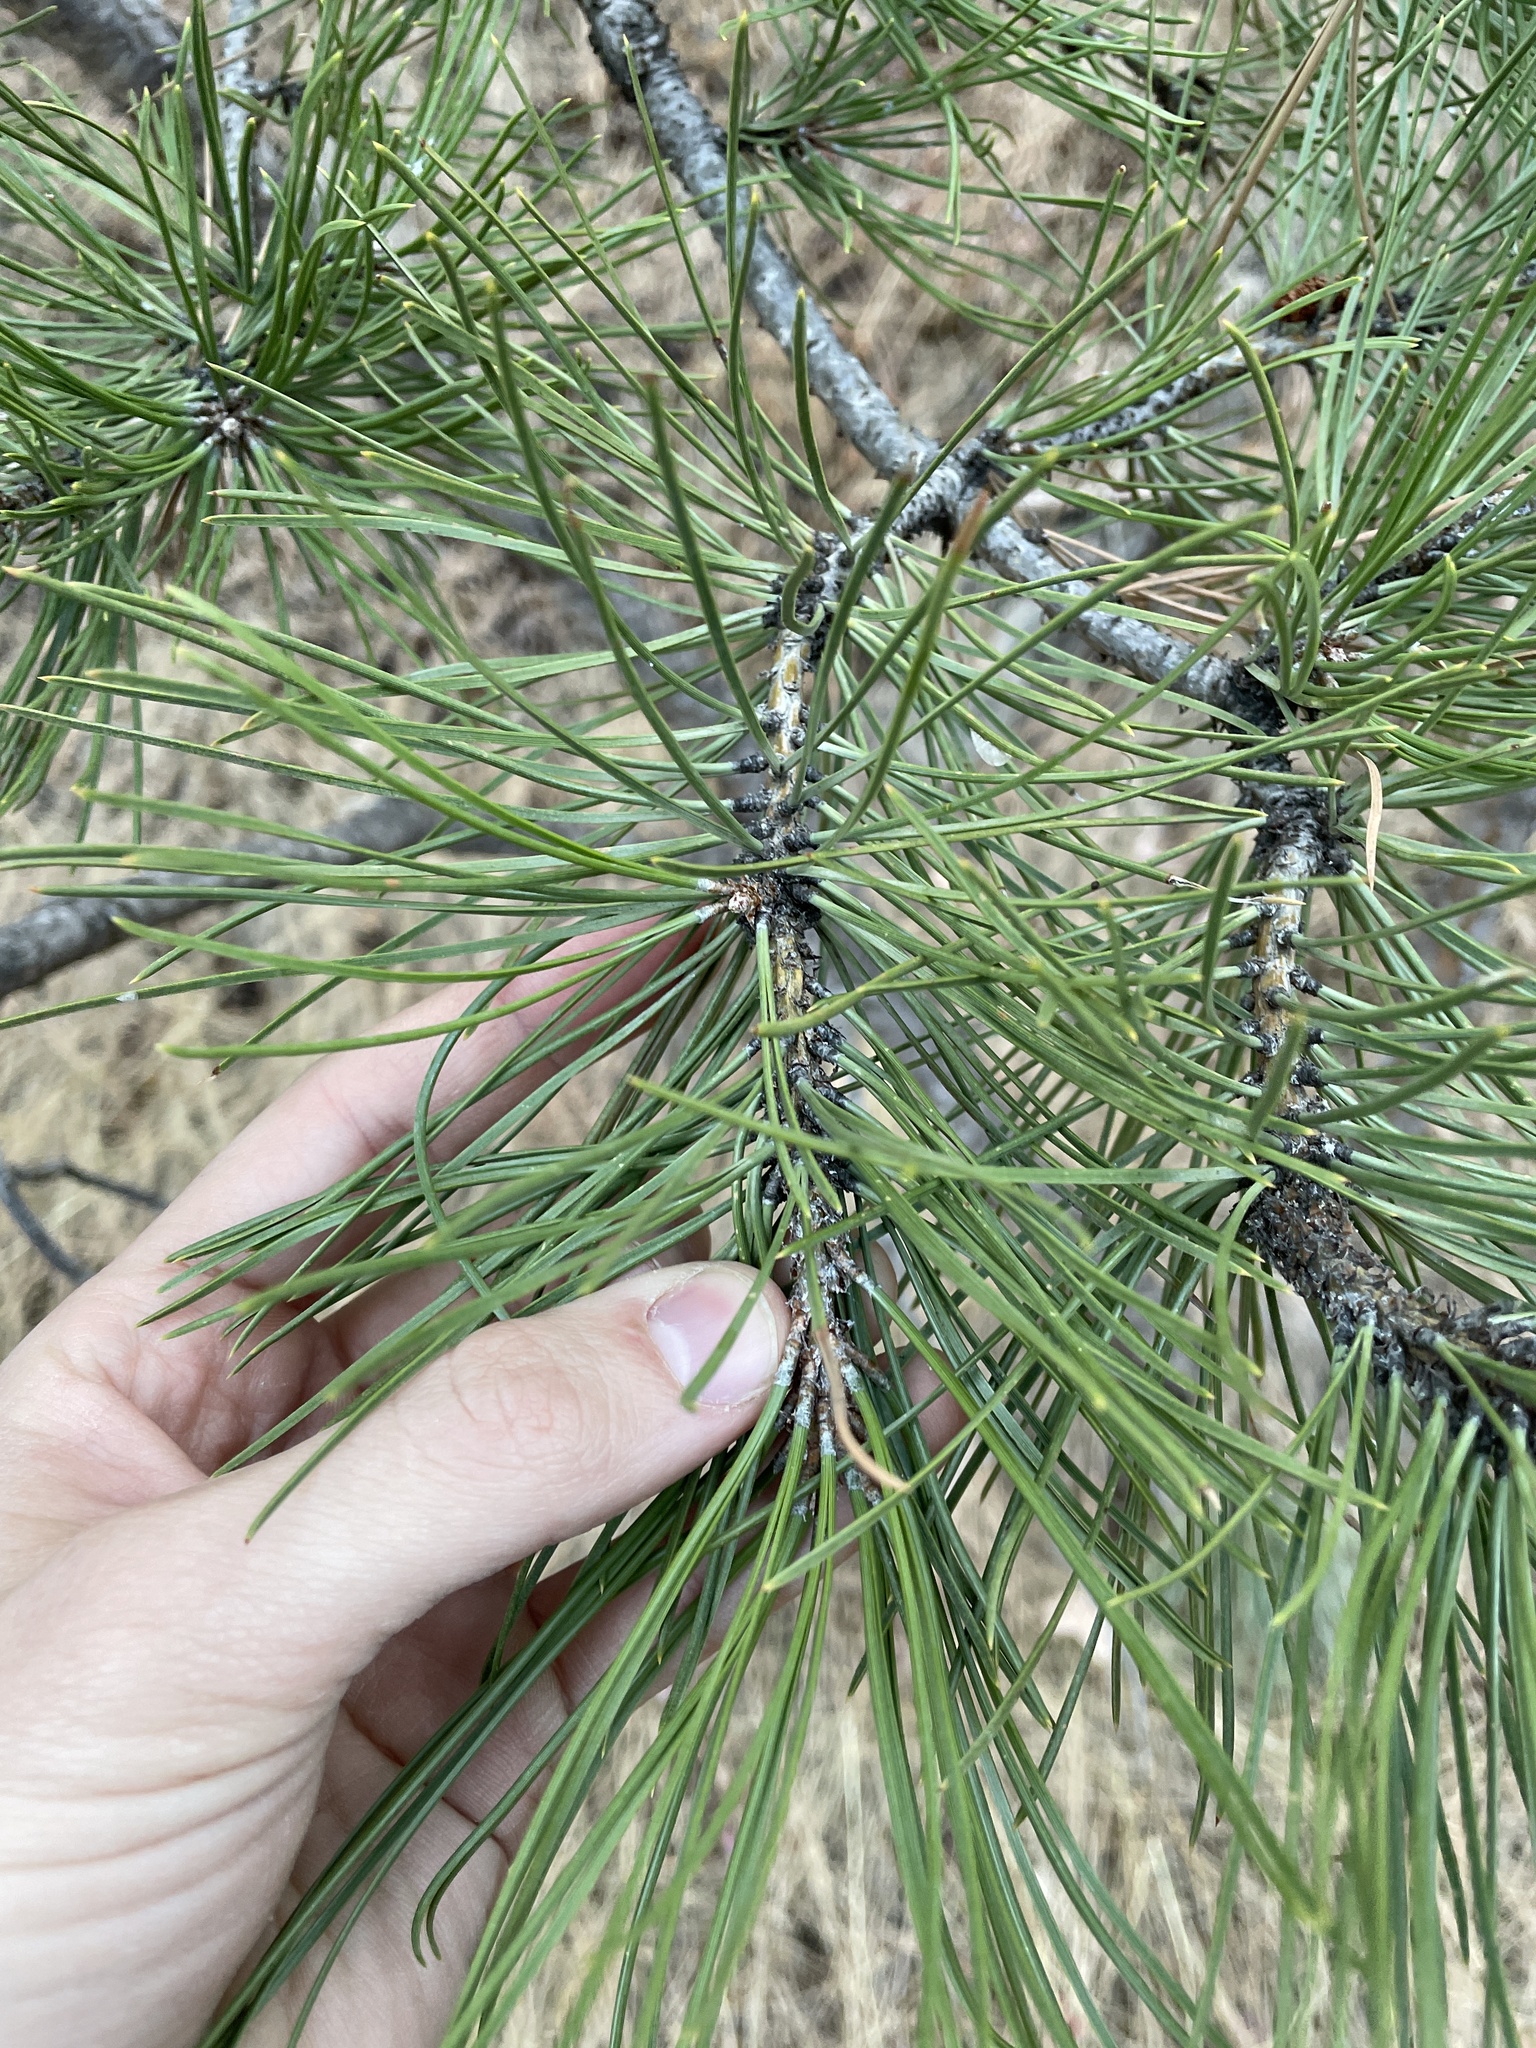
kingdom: Plantae
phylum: Tracheophyta
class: Pinopsida
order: Pinales
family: Pinaceae
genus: Pinus
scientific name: Pinus ponderosa
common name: Western yellow-pine
